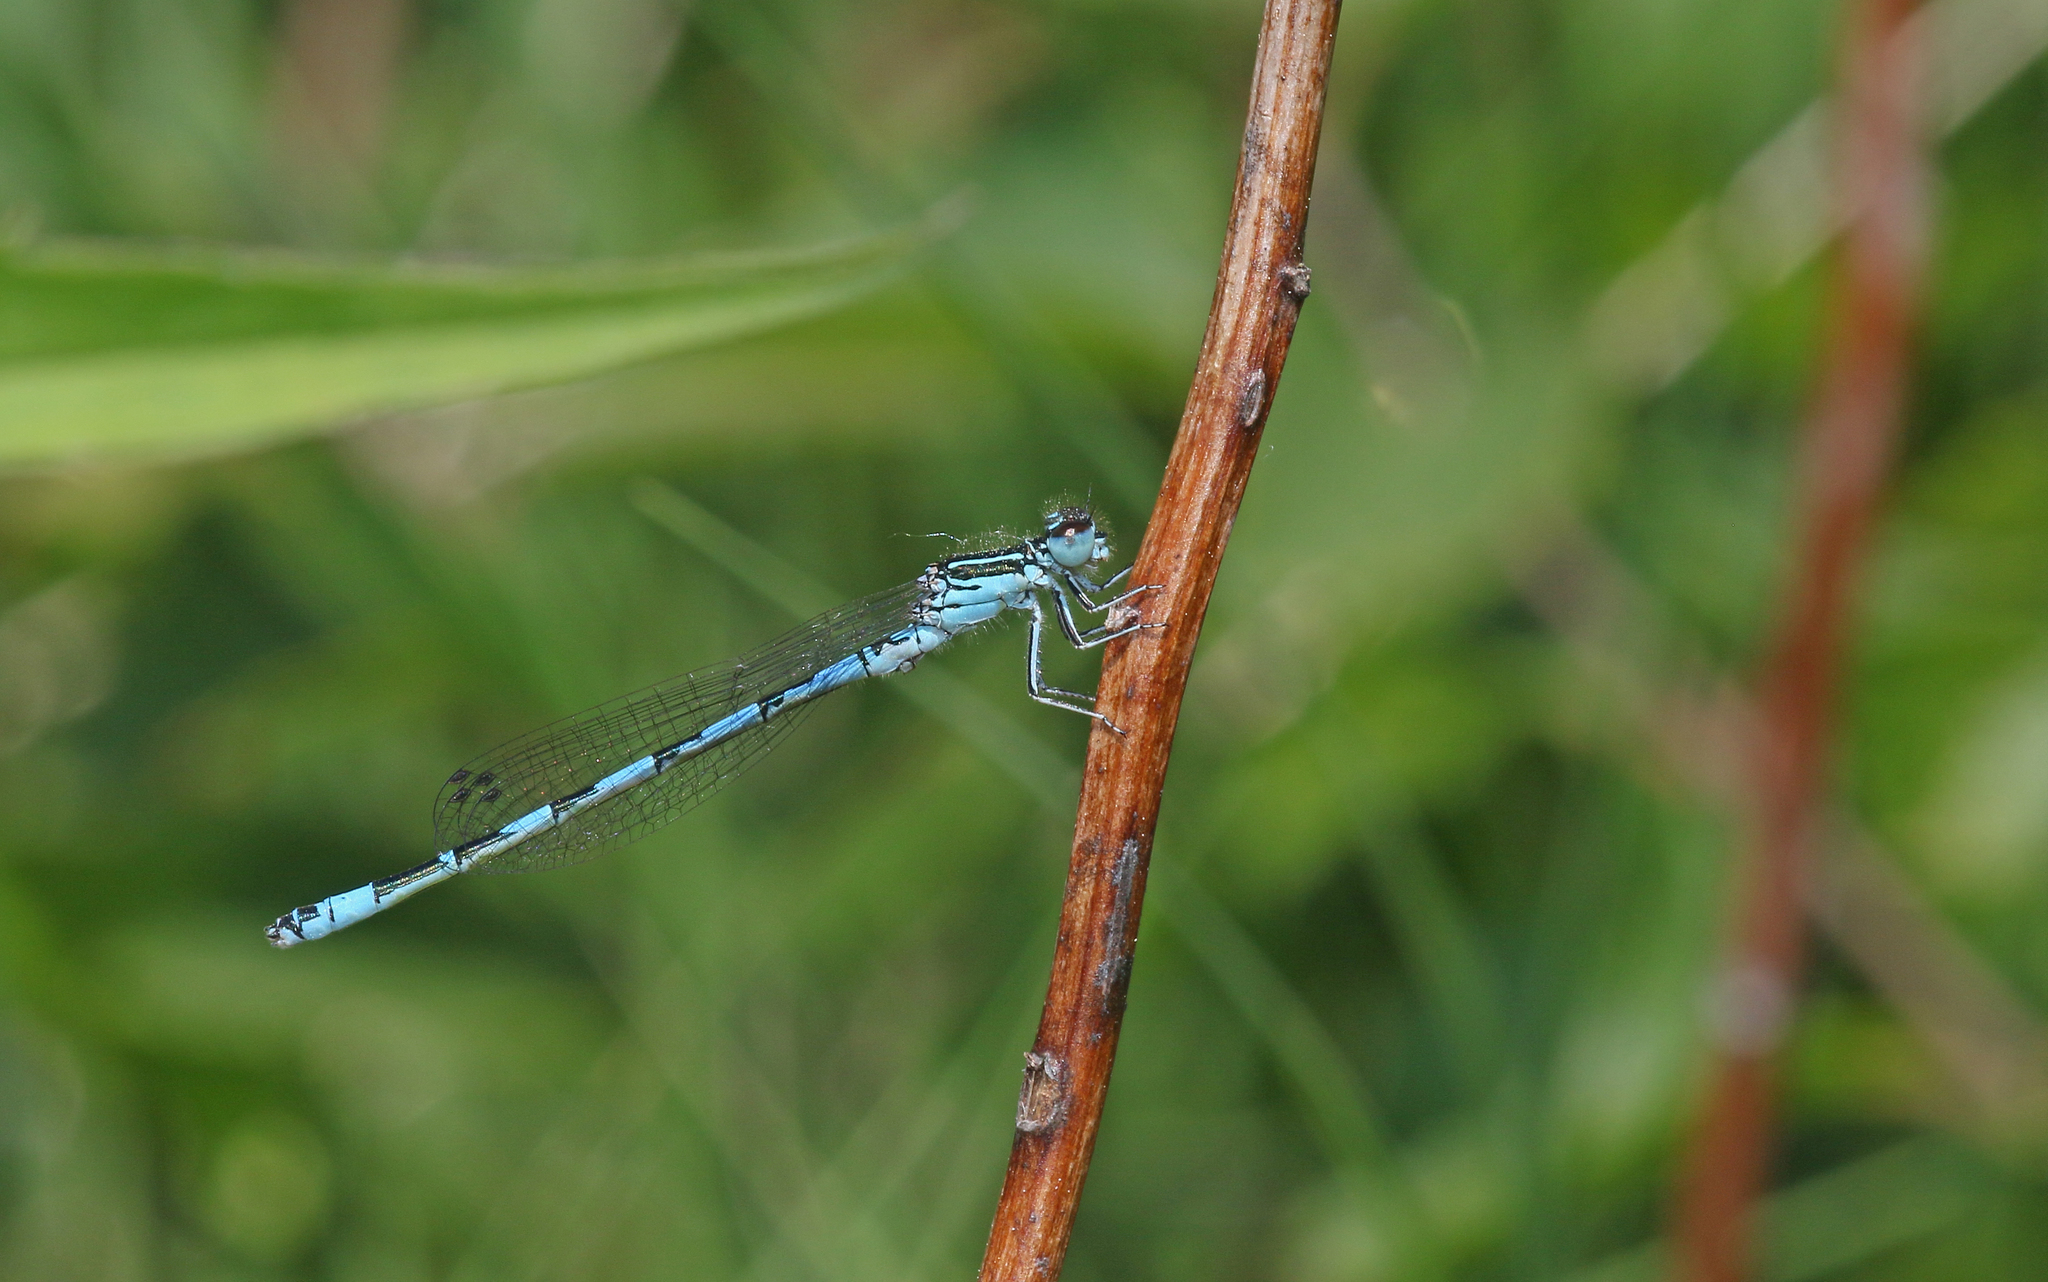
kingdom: Animalia
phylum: Arthropoda
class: Insecta
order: Odonata
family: Coenagrionidae
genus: Coenagrion
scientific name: Coenagrion mercuriale
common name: Southern damselfly
